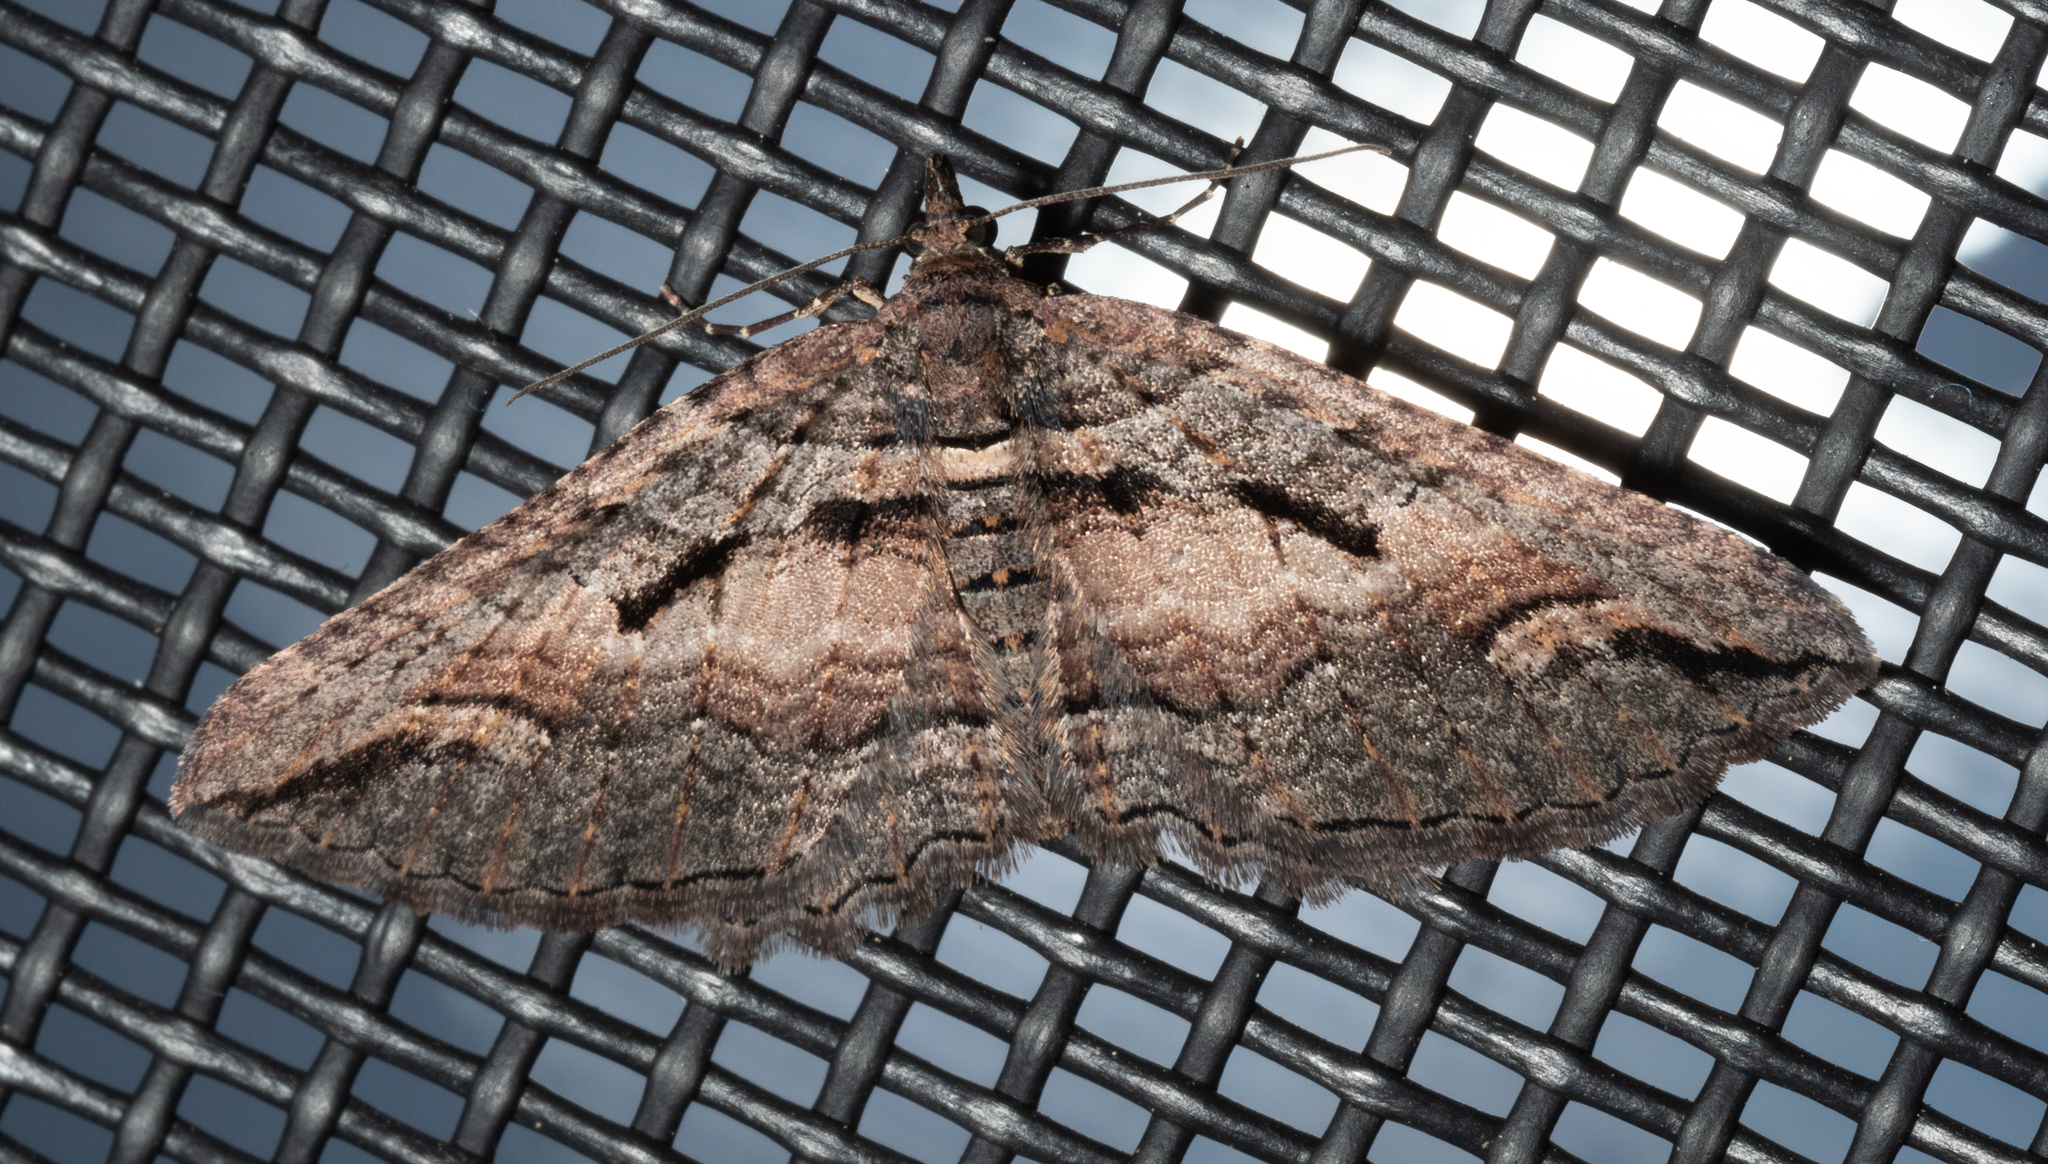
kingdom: Animalia
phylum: Arthropoda
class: Insecta
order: Lepidoptera
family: Geometridae
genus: Chrysolarentia
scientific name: Chrysolarentia plagiocausta
